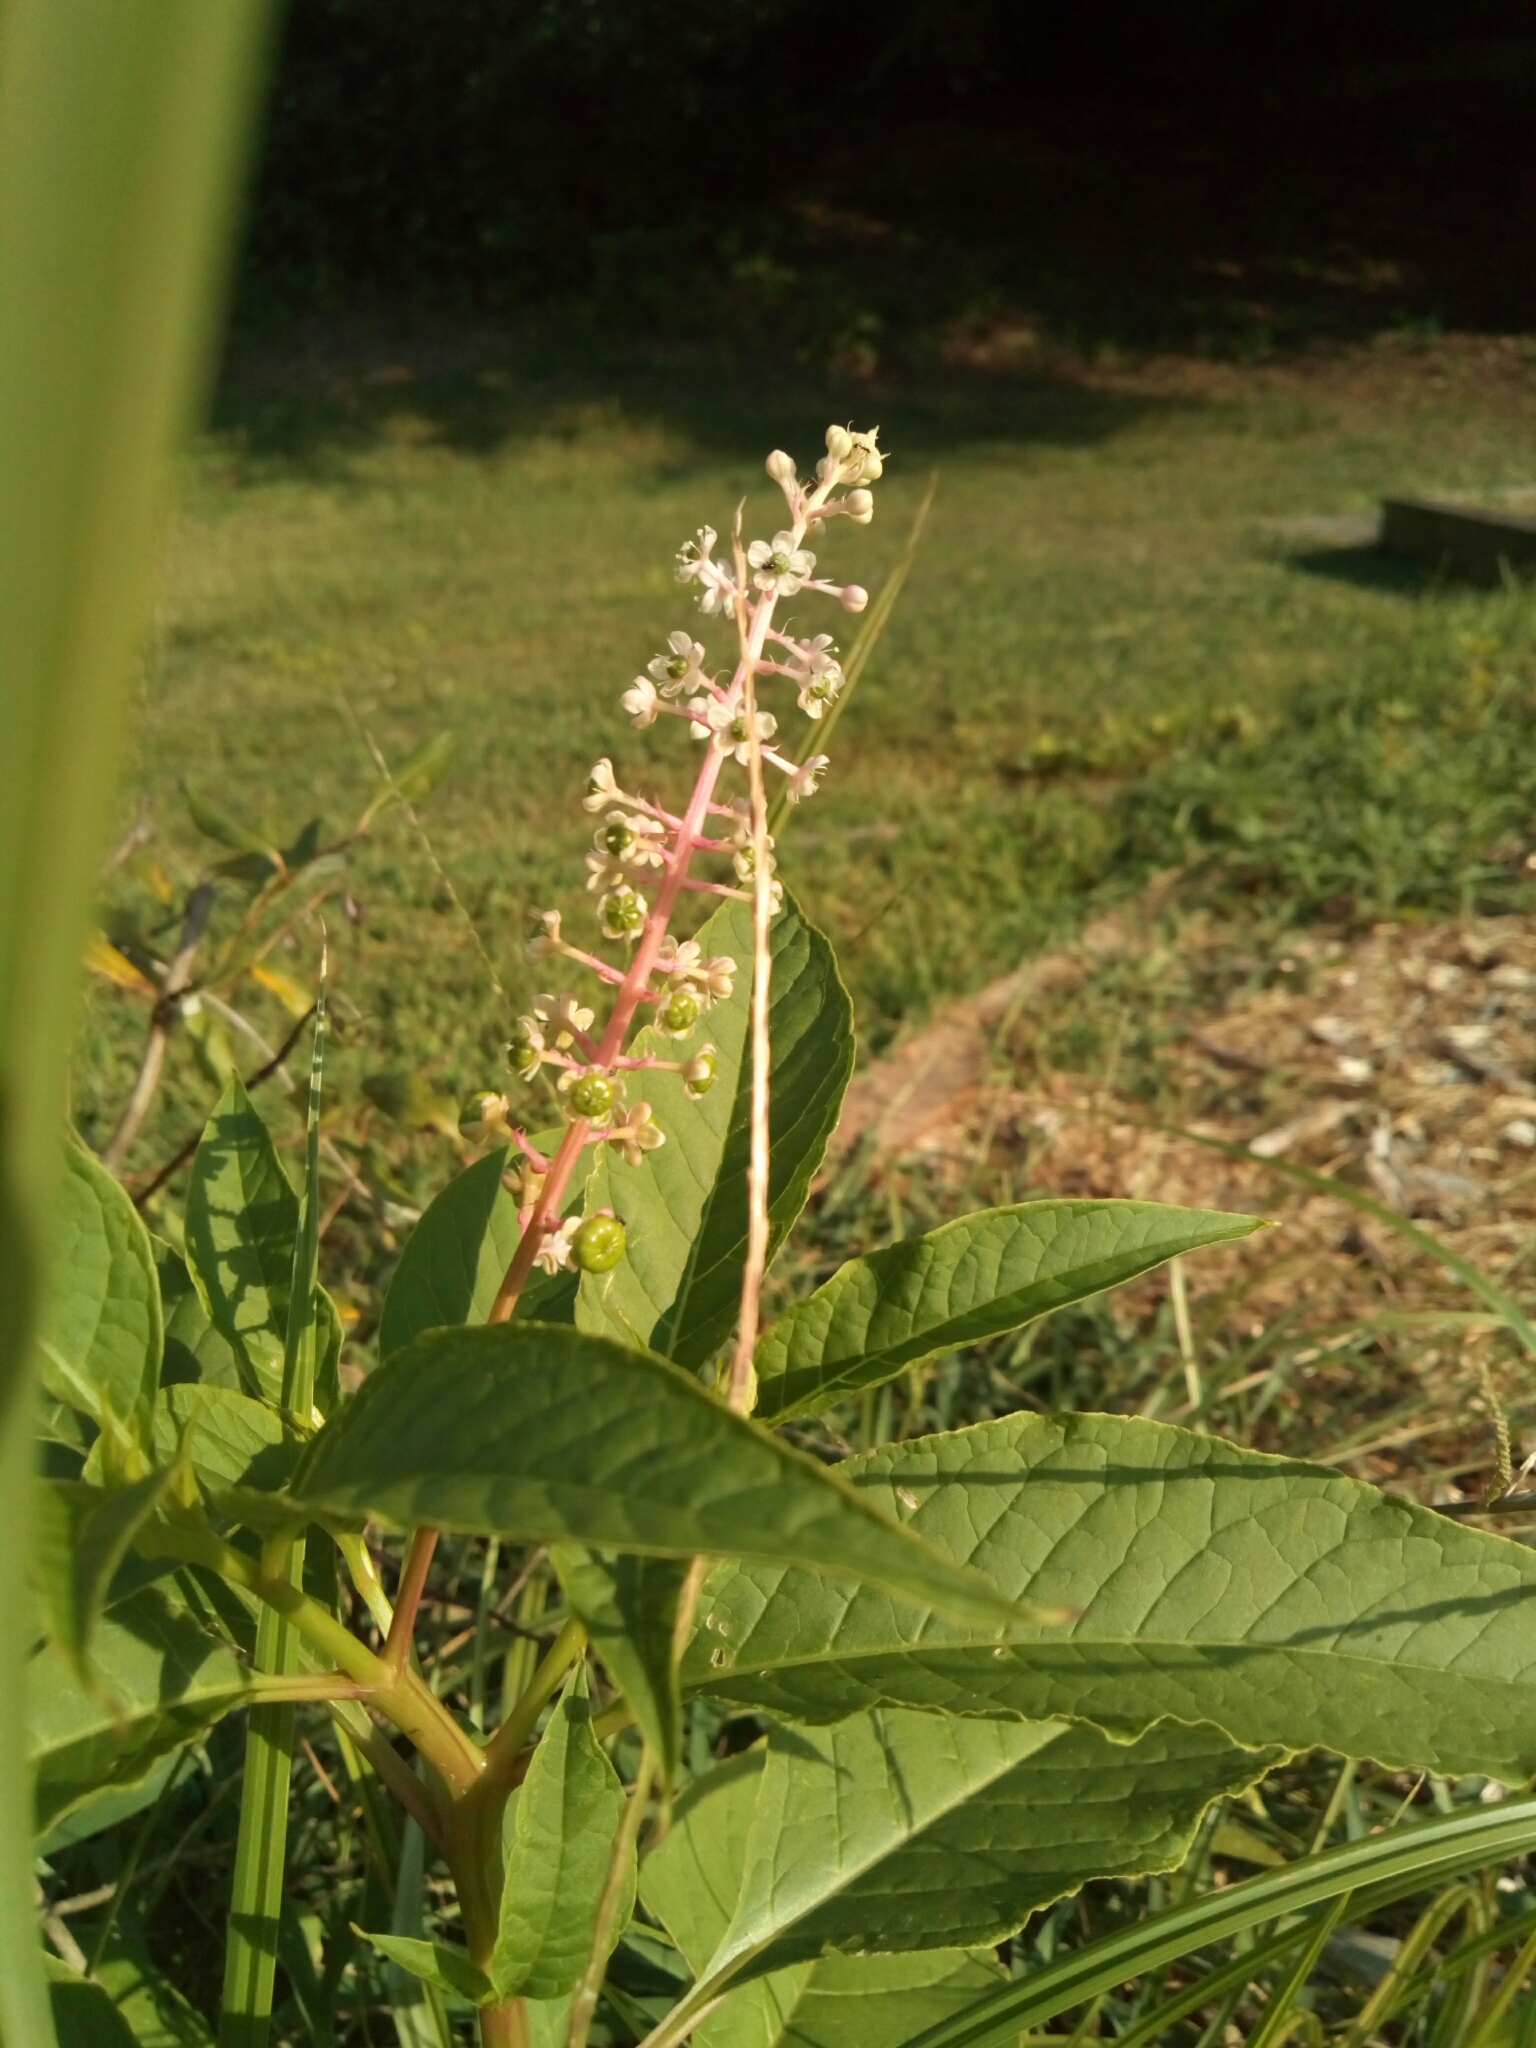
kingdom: Plantae
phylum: Tracheophyta
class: Magnoliopsida
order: Caryophyllales
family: Phytolaccaceae
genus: Phytolacca
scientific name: Phytolacca americana
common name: American pokeweed
